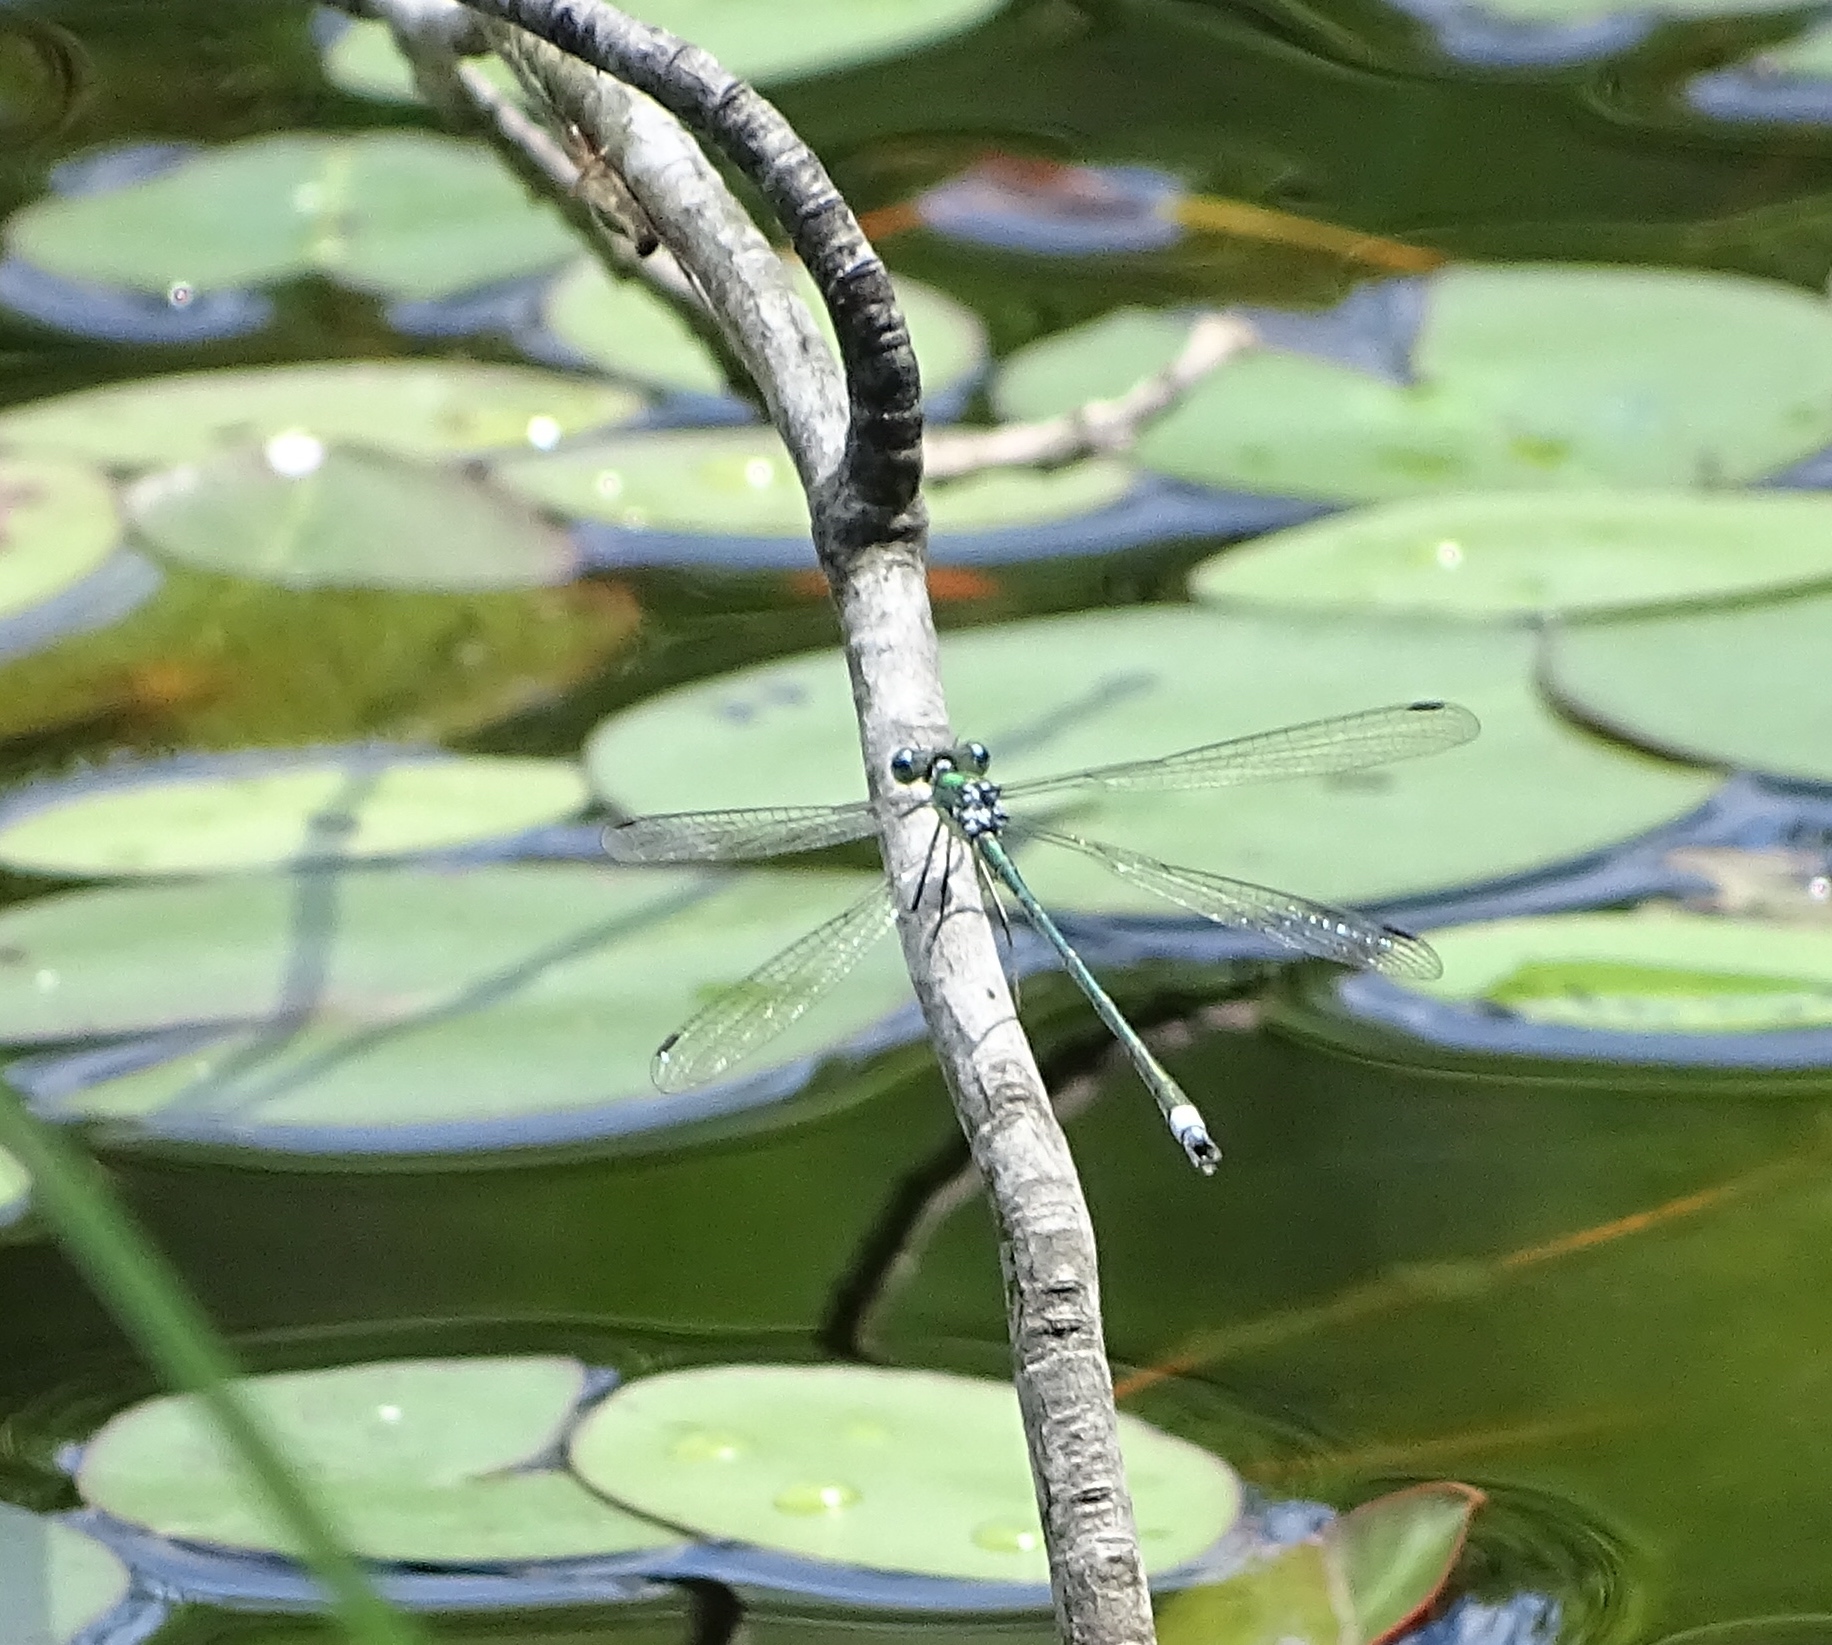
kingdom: Animalia
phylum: Arthropoda
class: Insecta
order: Odonata
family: Lestidae
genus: Lestes
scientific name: Lestes inaequalis
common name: Elegant spreadwing
